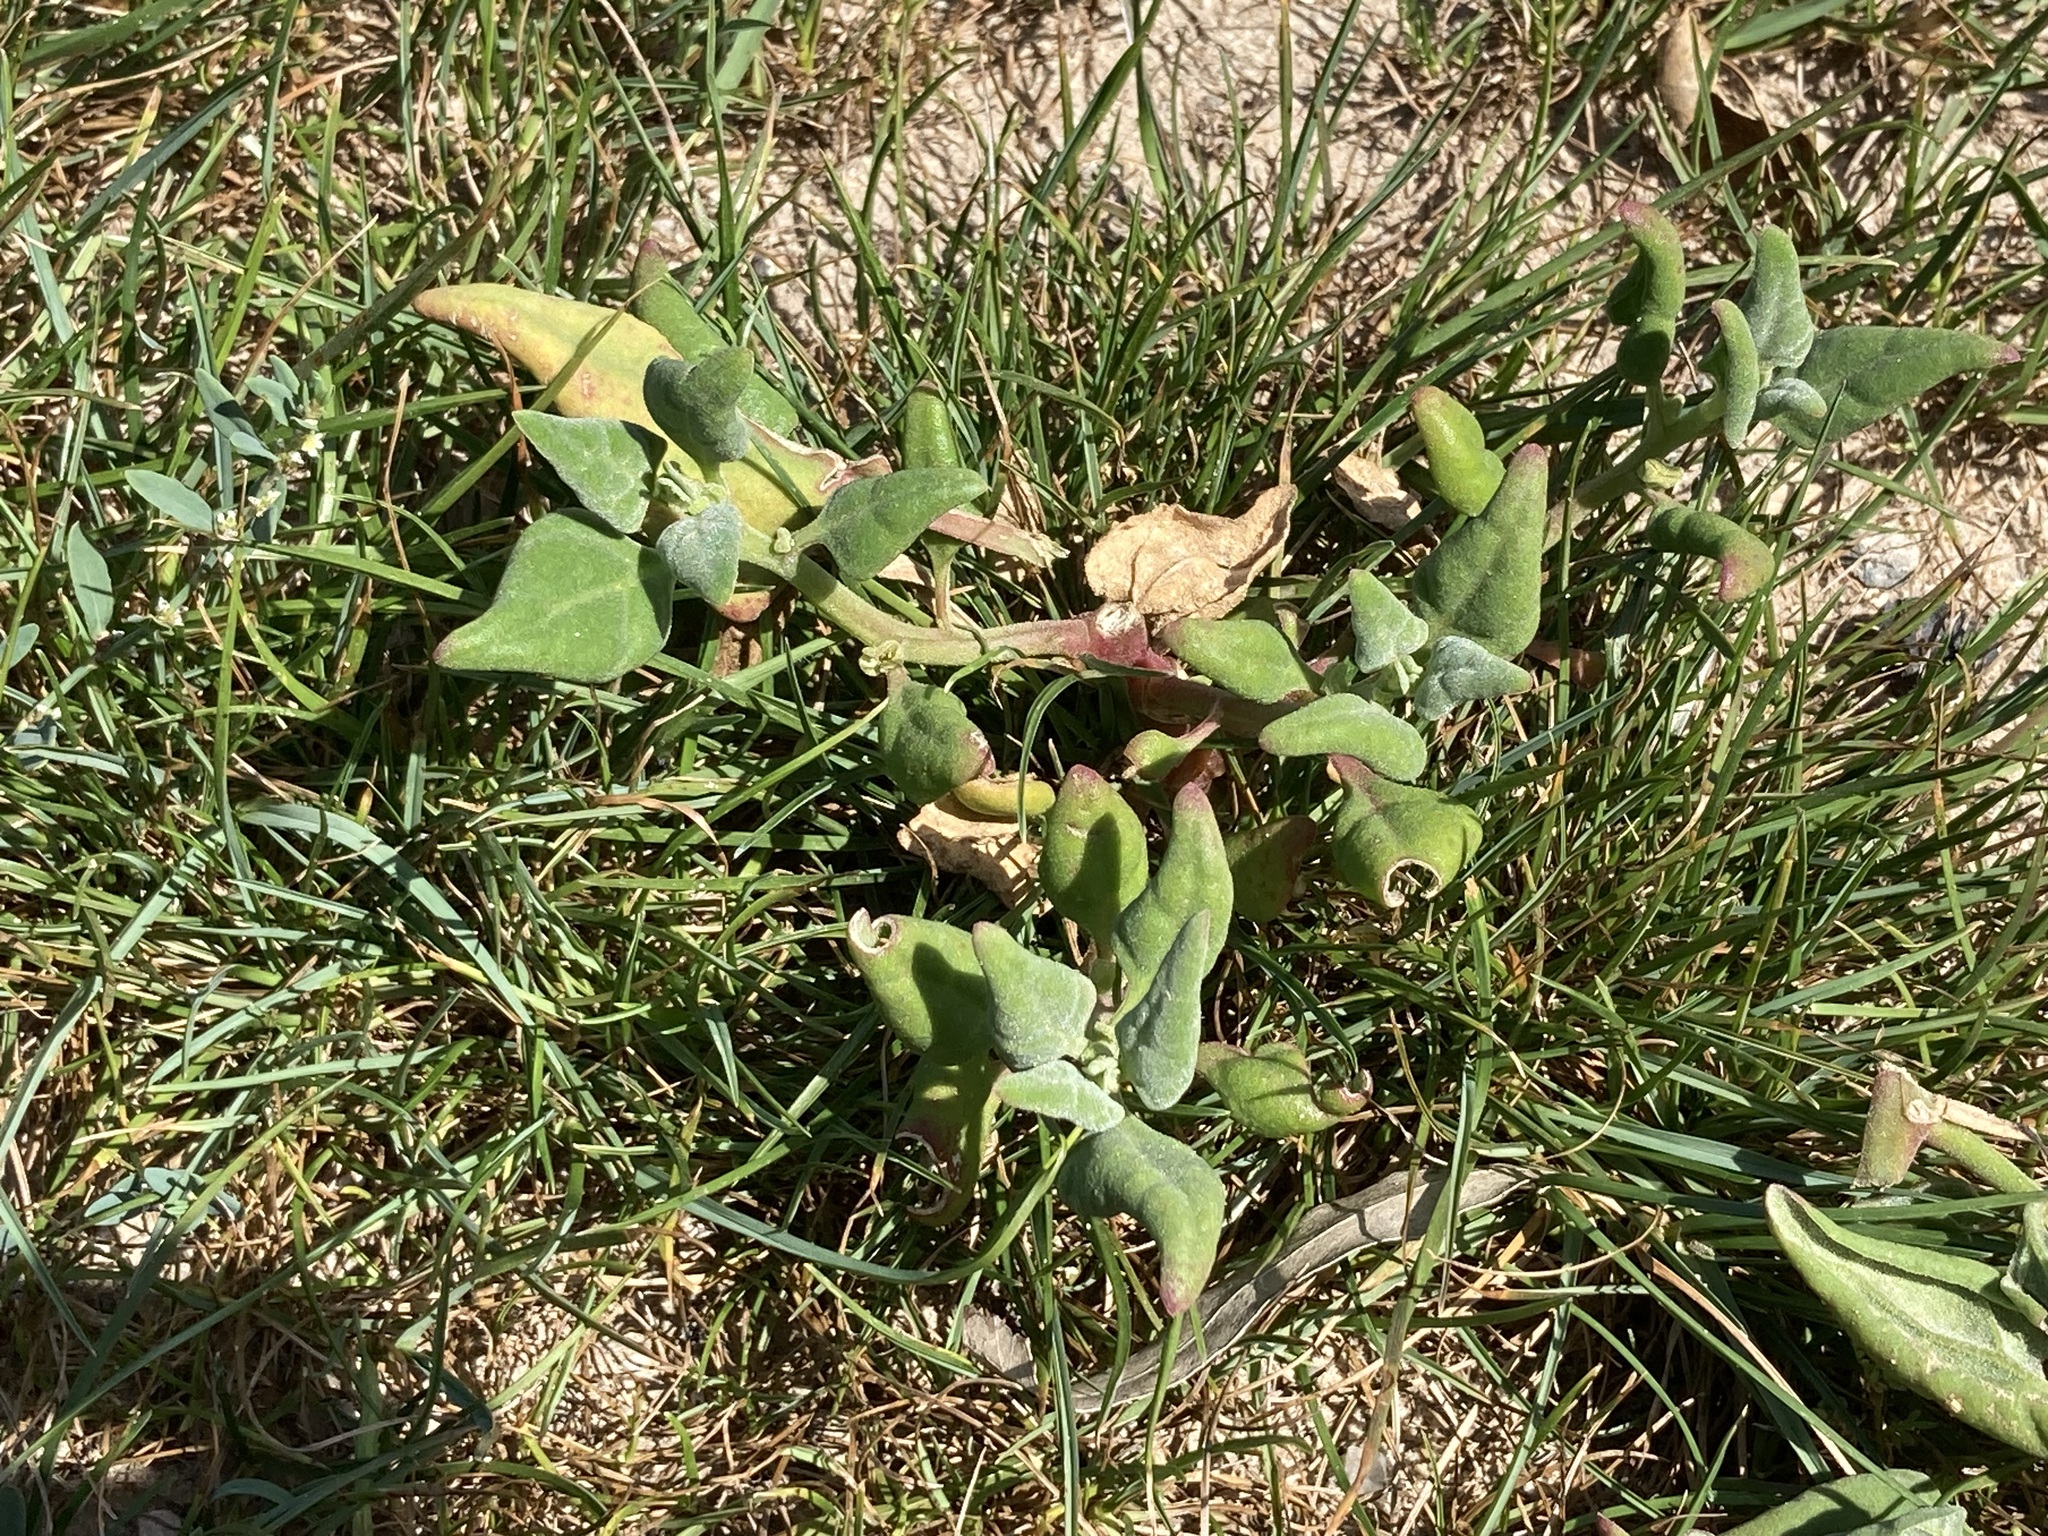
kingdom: Plantae
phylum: Tracheophyta
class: Magnoliopsida
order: Caryophyllales
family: Aizoaceae
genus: Tetragonia
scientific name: Tetragonia tetragonoides
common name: New zealand-spinach
